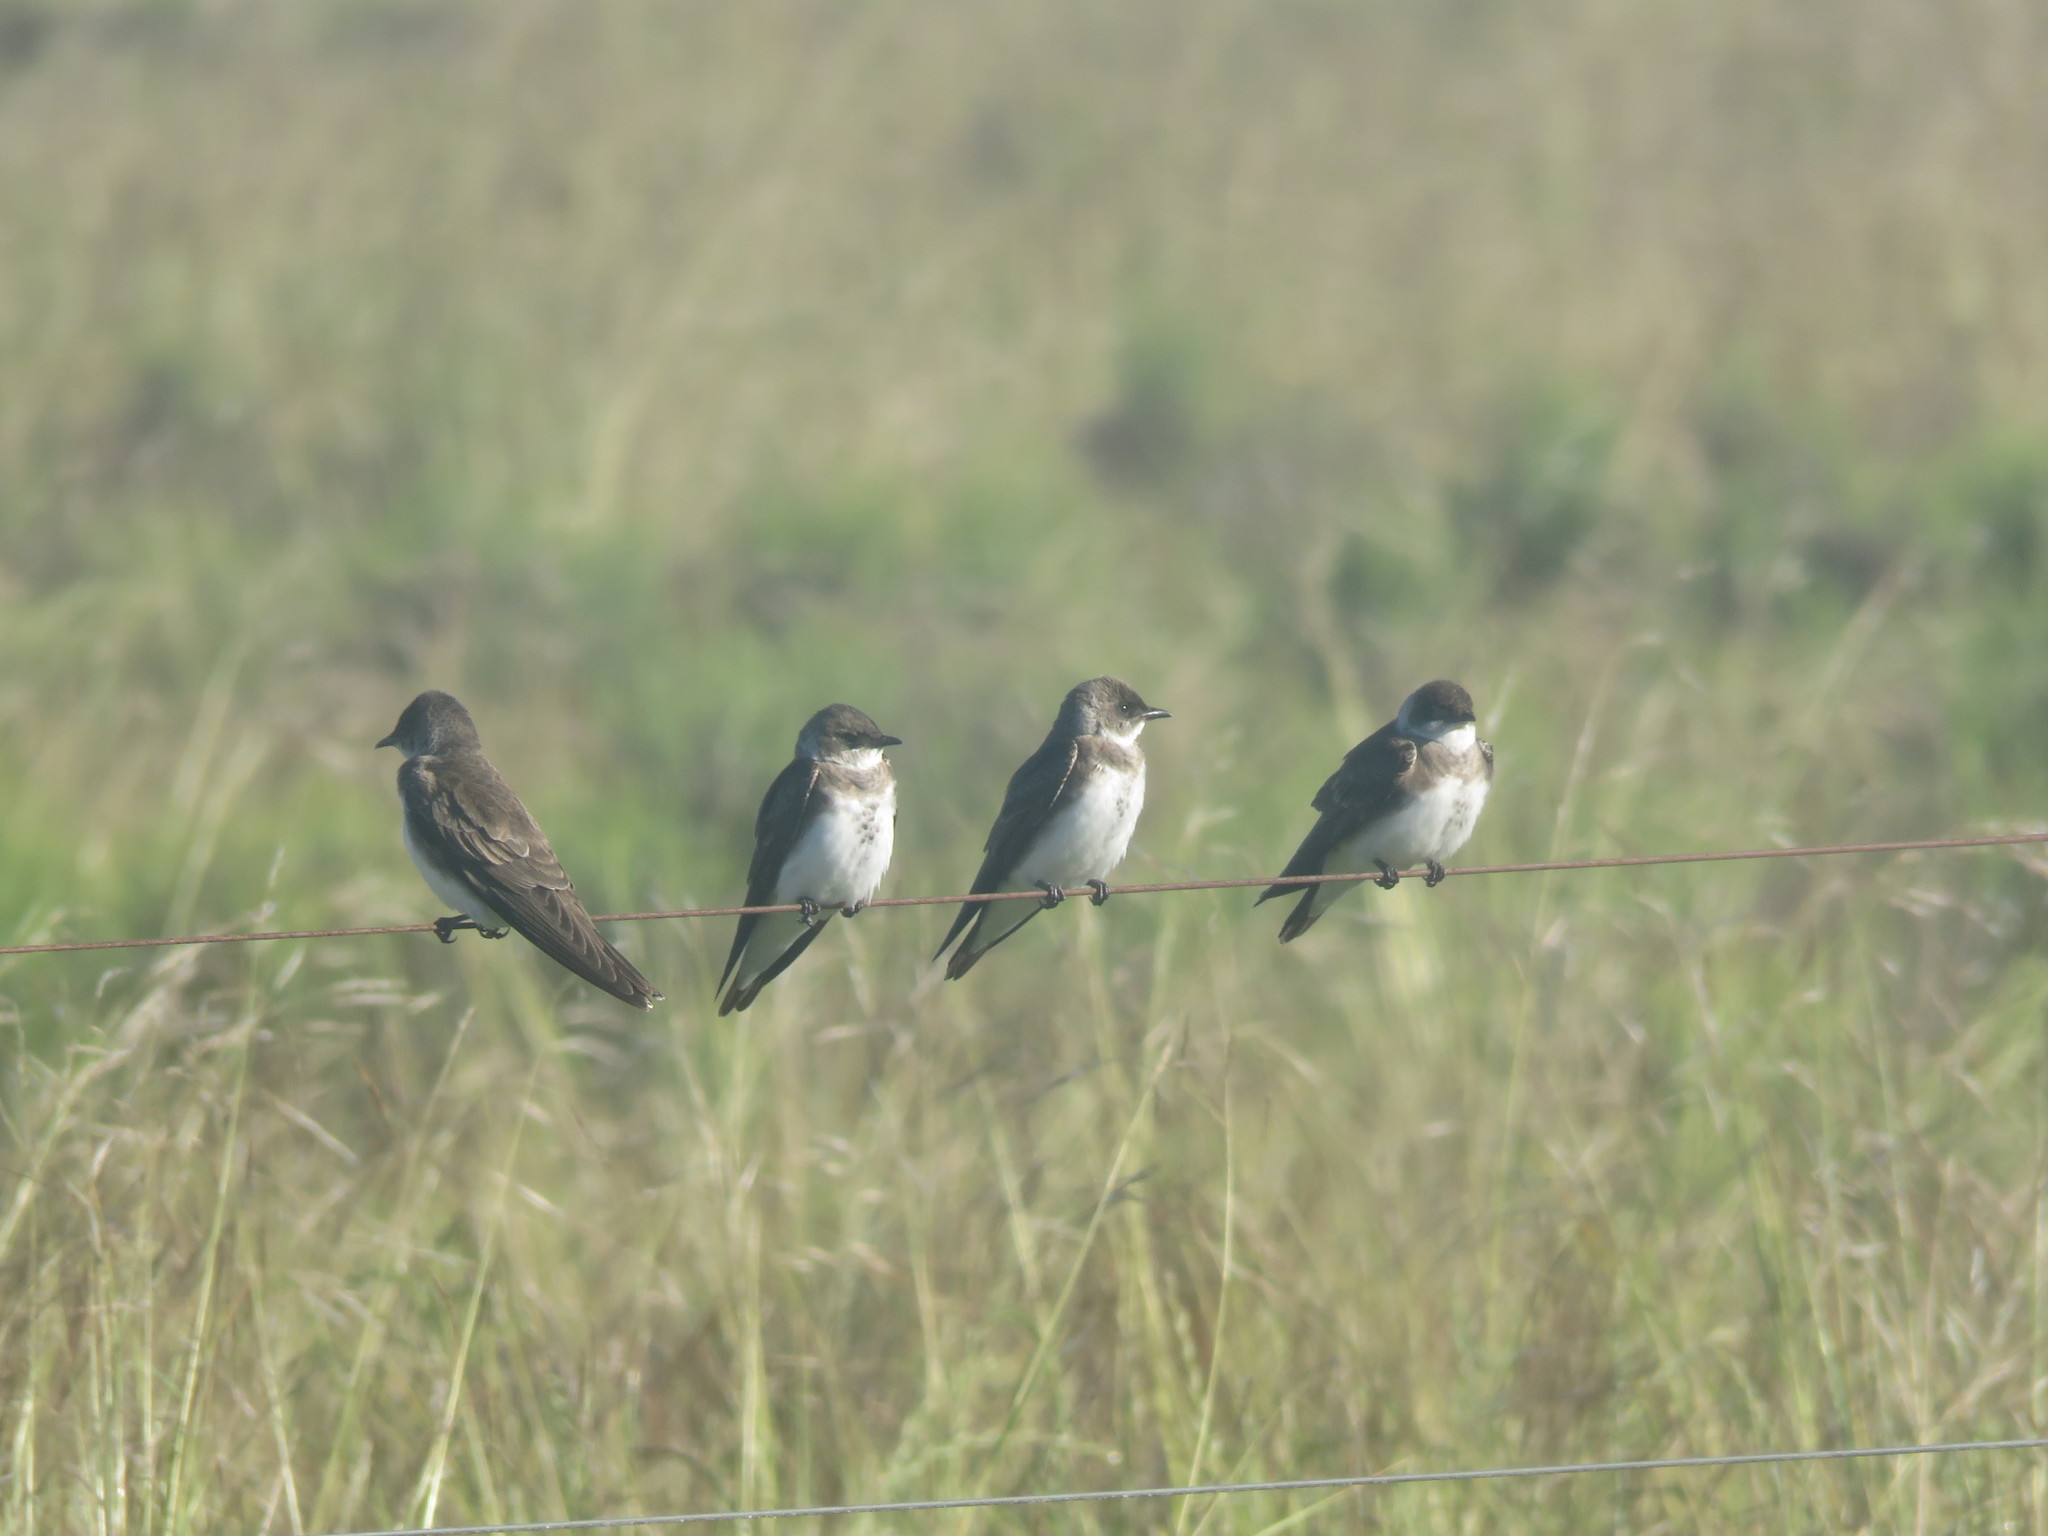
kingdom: Animalia
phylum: Chordata
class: Aves
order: Passeriformes
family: Hirundinidae
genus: Progne
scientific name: Progne tapera
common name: Brown-chested martin
